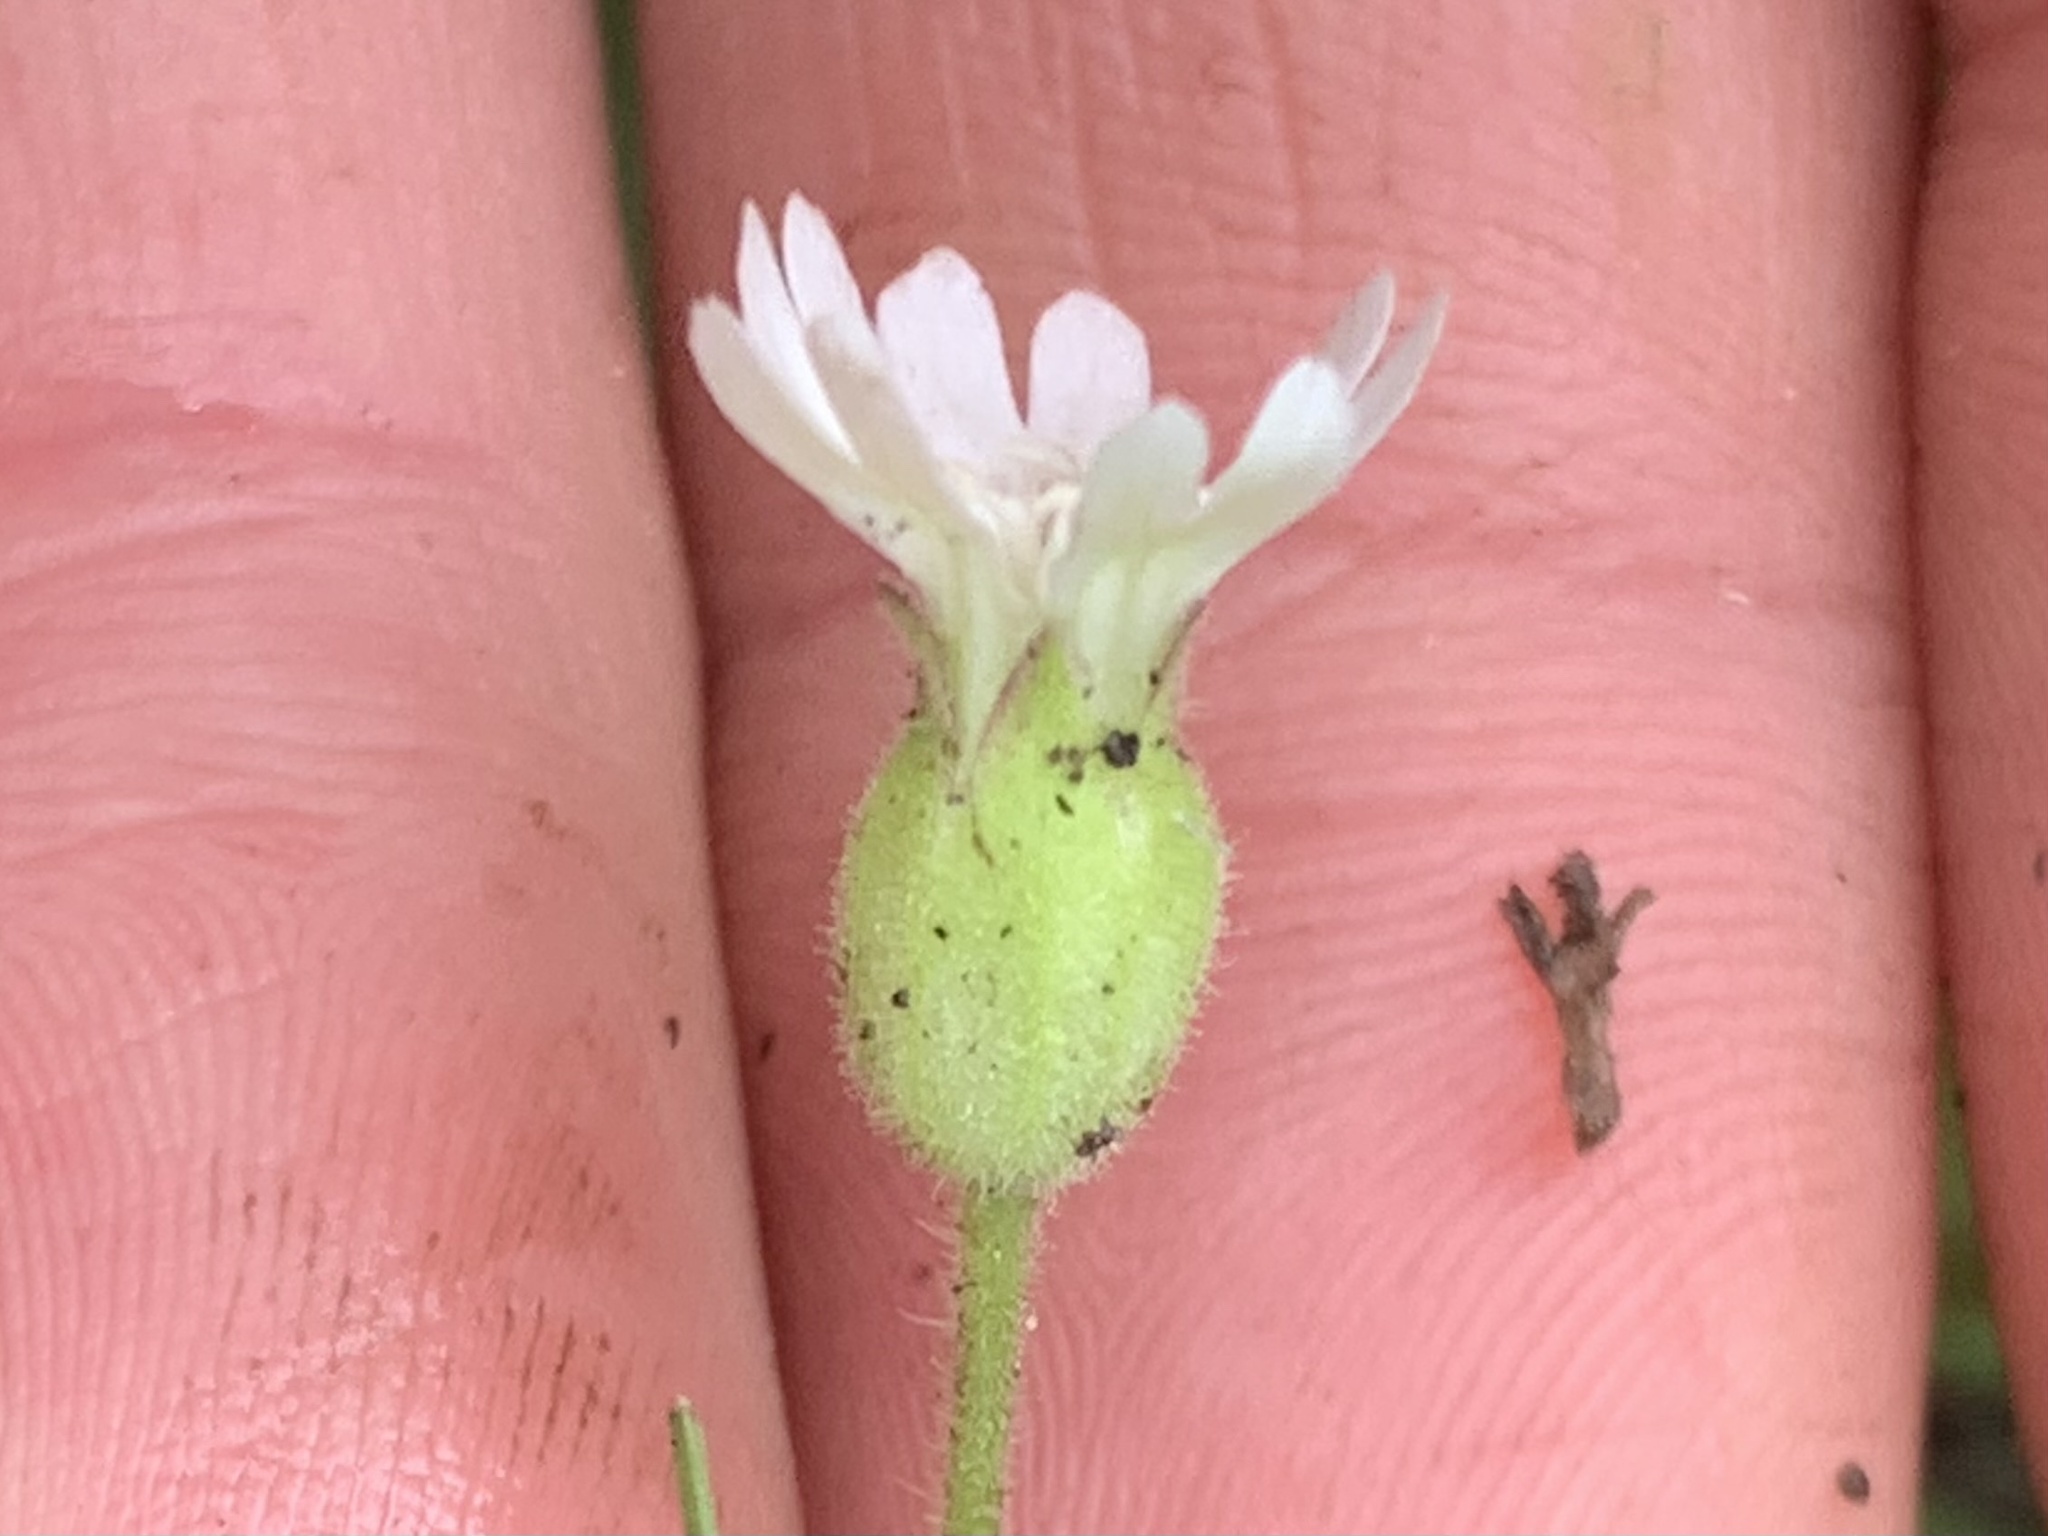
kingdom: Plantae
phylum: Tracheophyta
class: Magnoliopsida
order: Caryophyllales
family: Caryophyllaceae
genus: Silene
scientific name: Silene menziesii
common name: Menzies's catchfly
